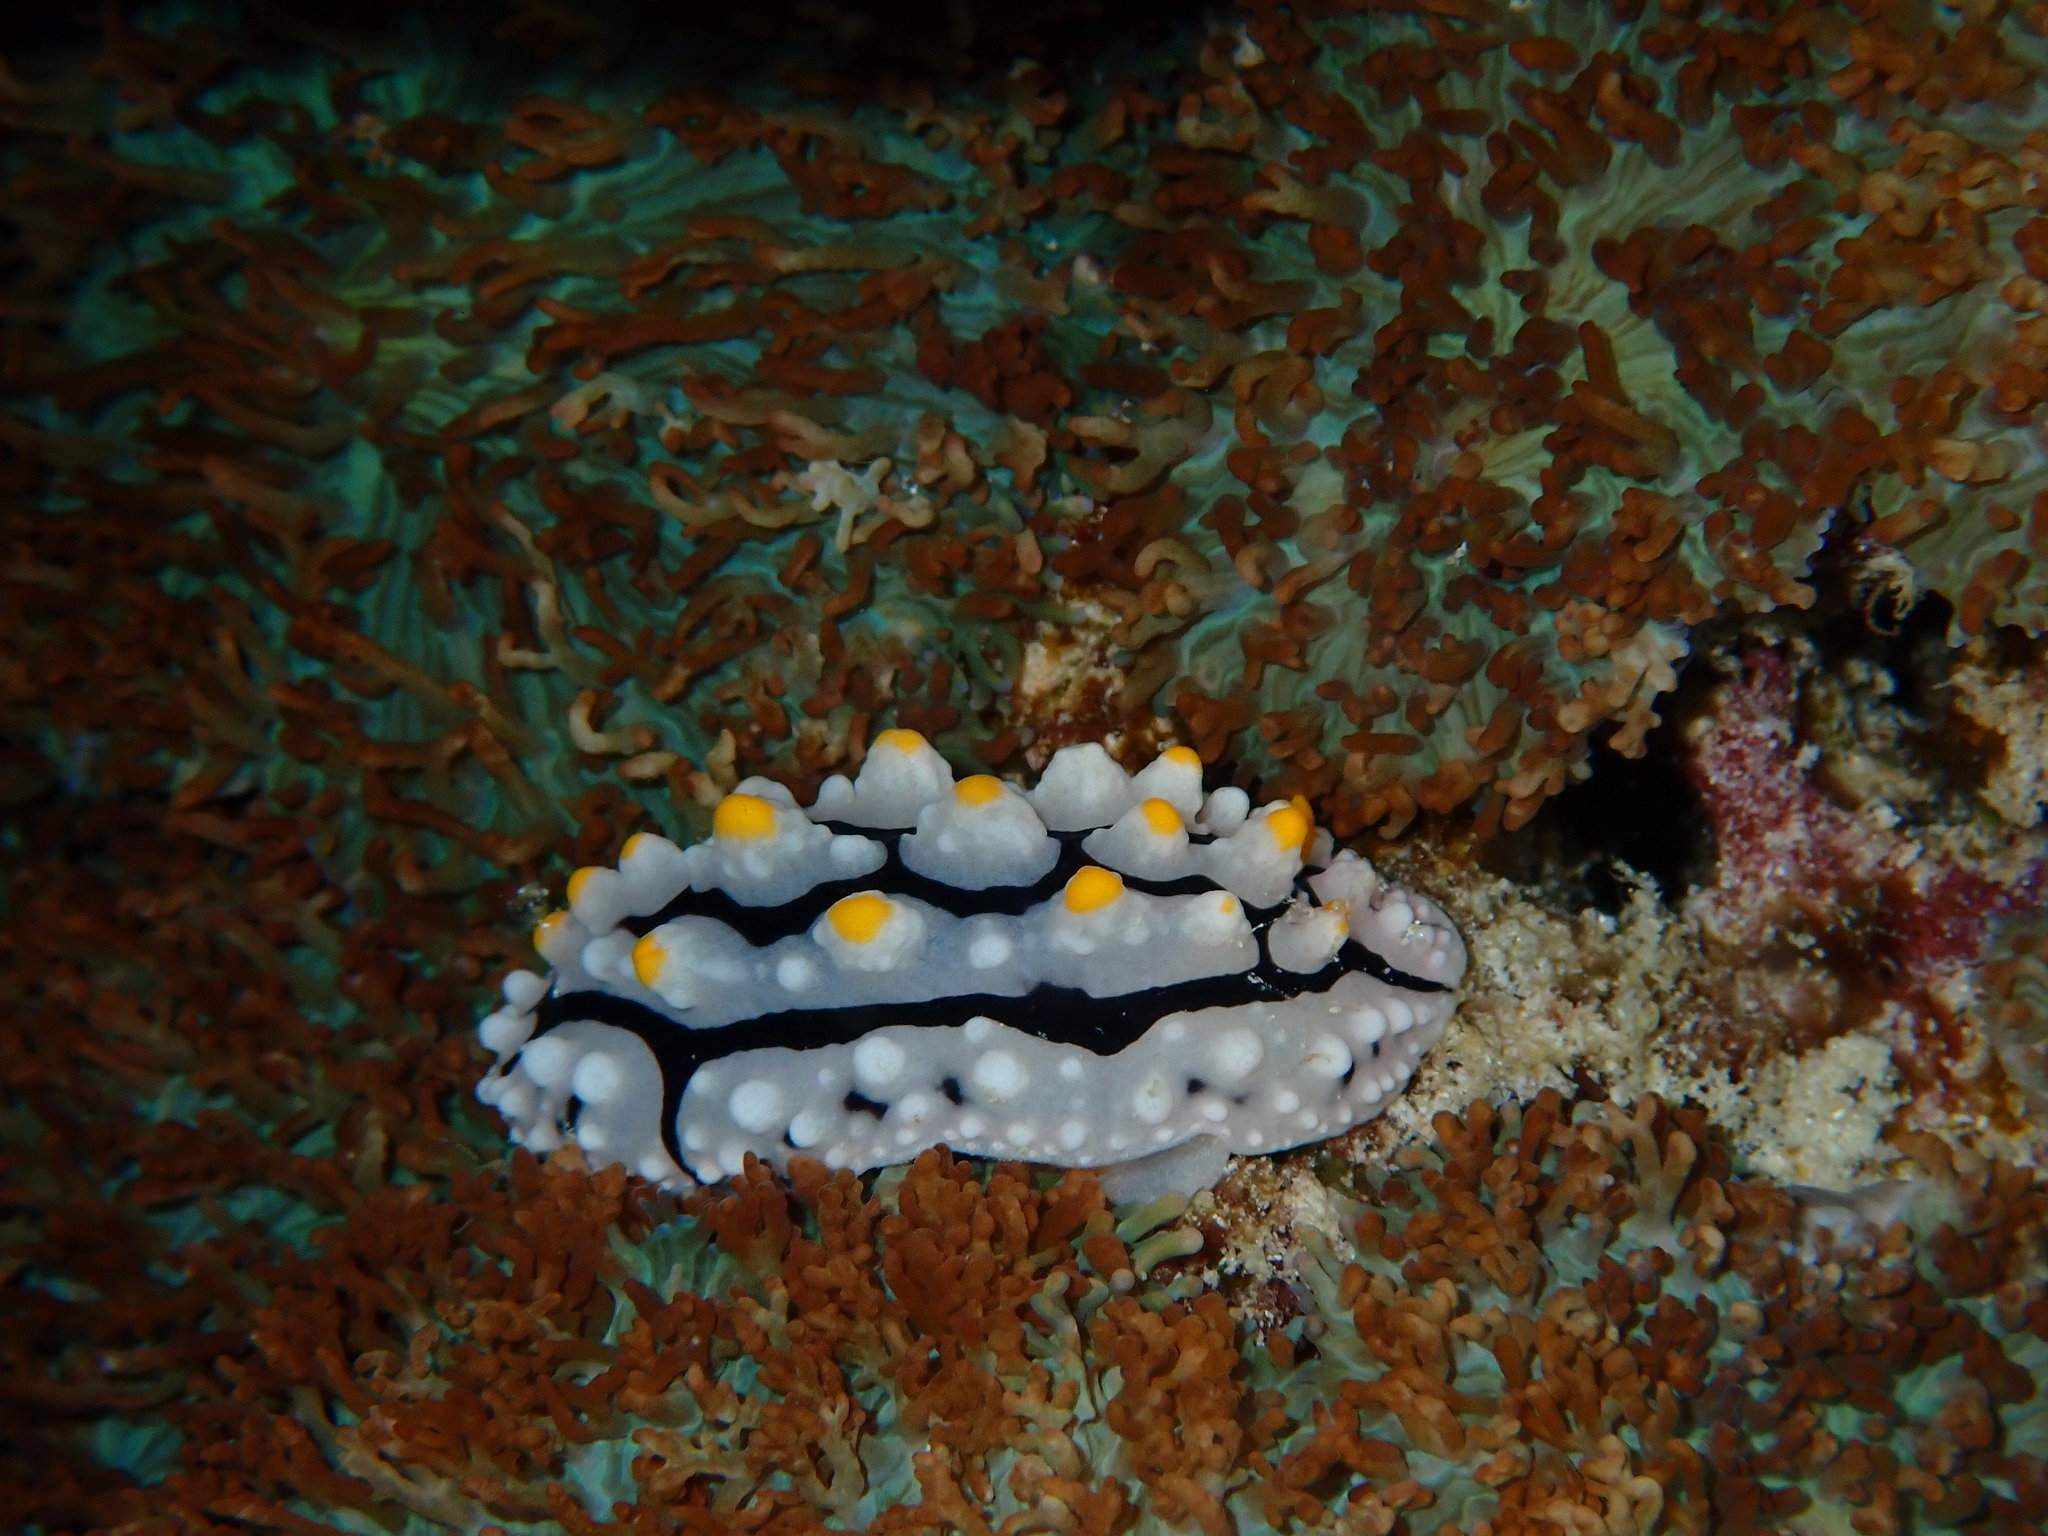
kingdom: Animalia
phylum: Mollusca
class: Gastropoda
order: Nudibranchia
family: Phyllidiidae
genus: Phyllidia
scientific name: Phyllidia elegans
